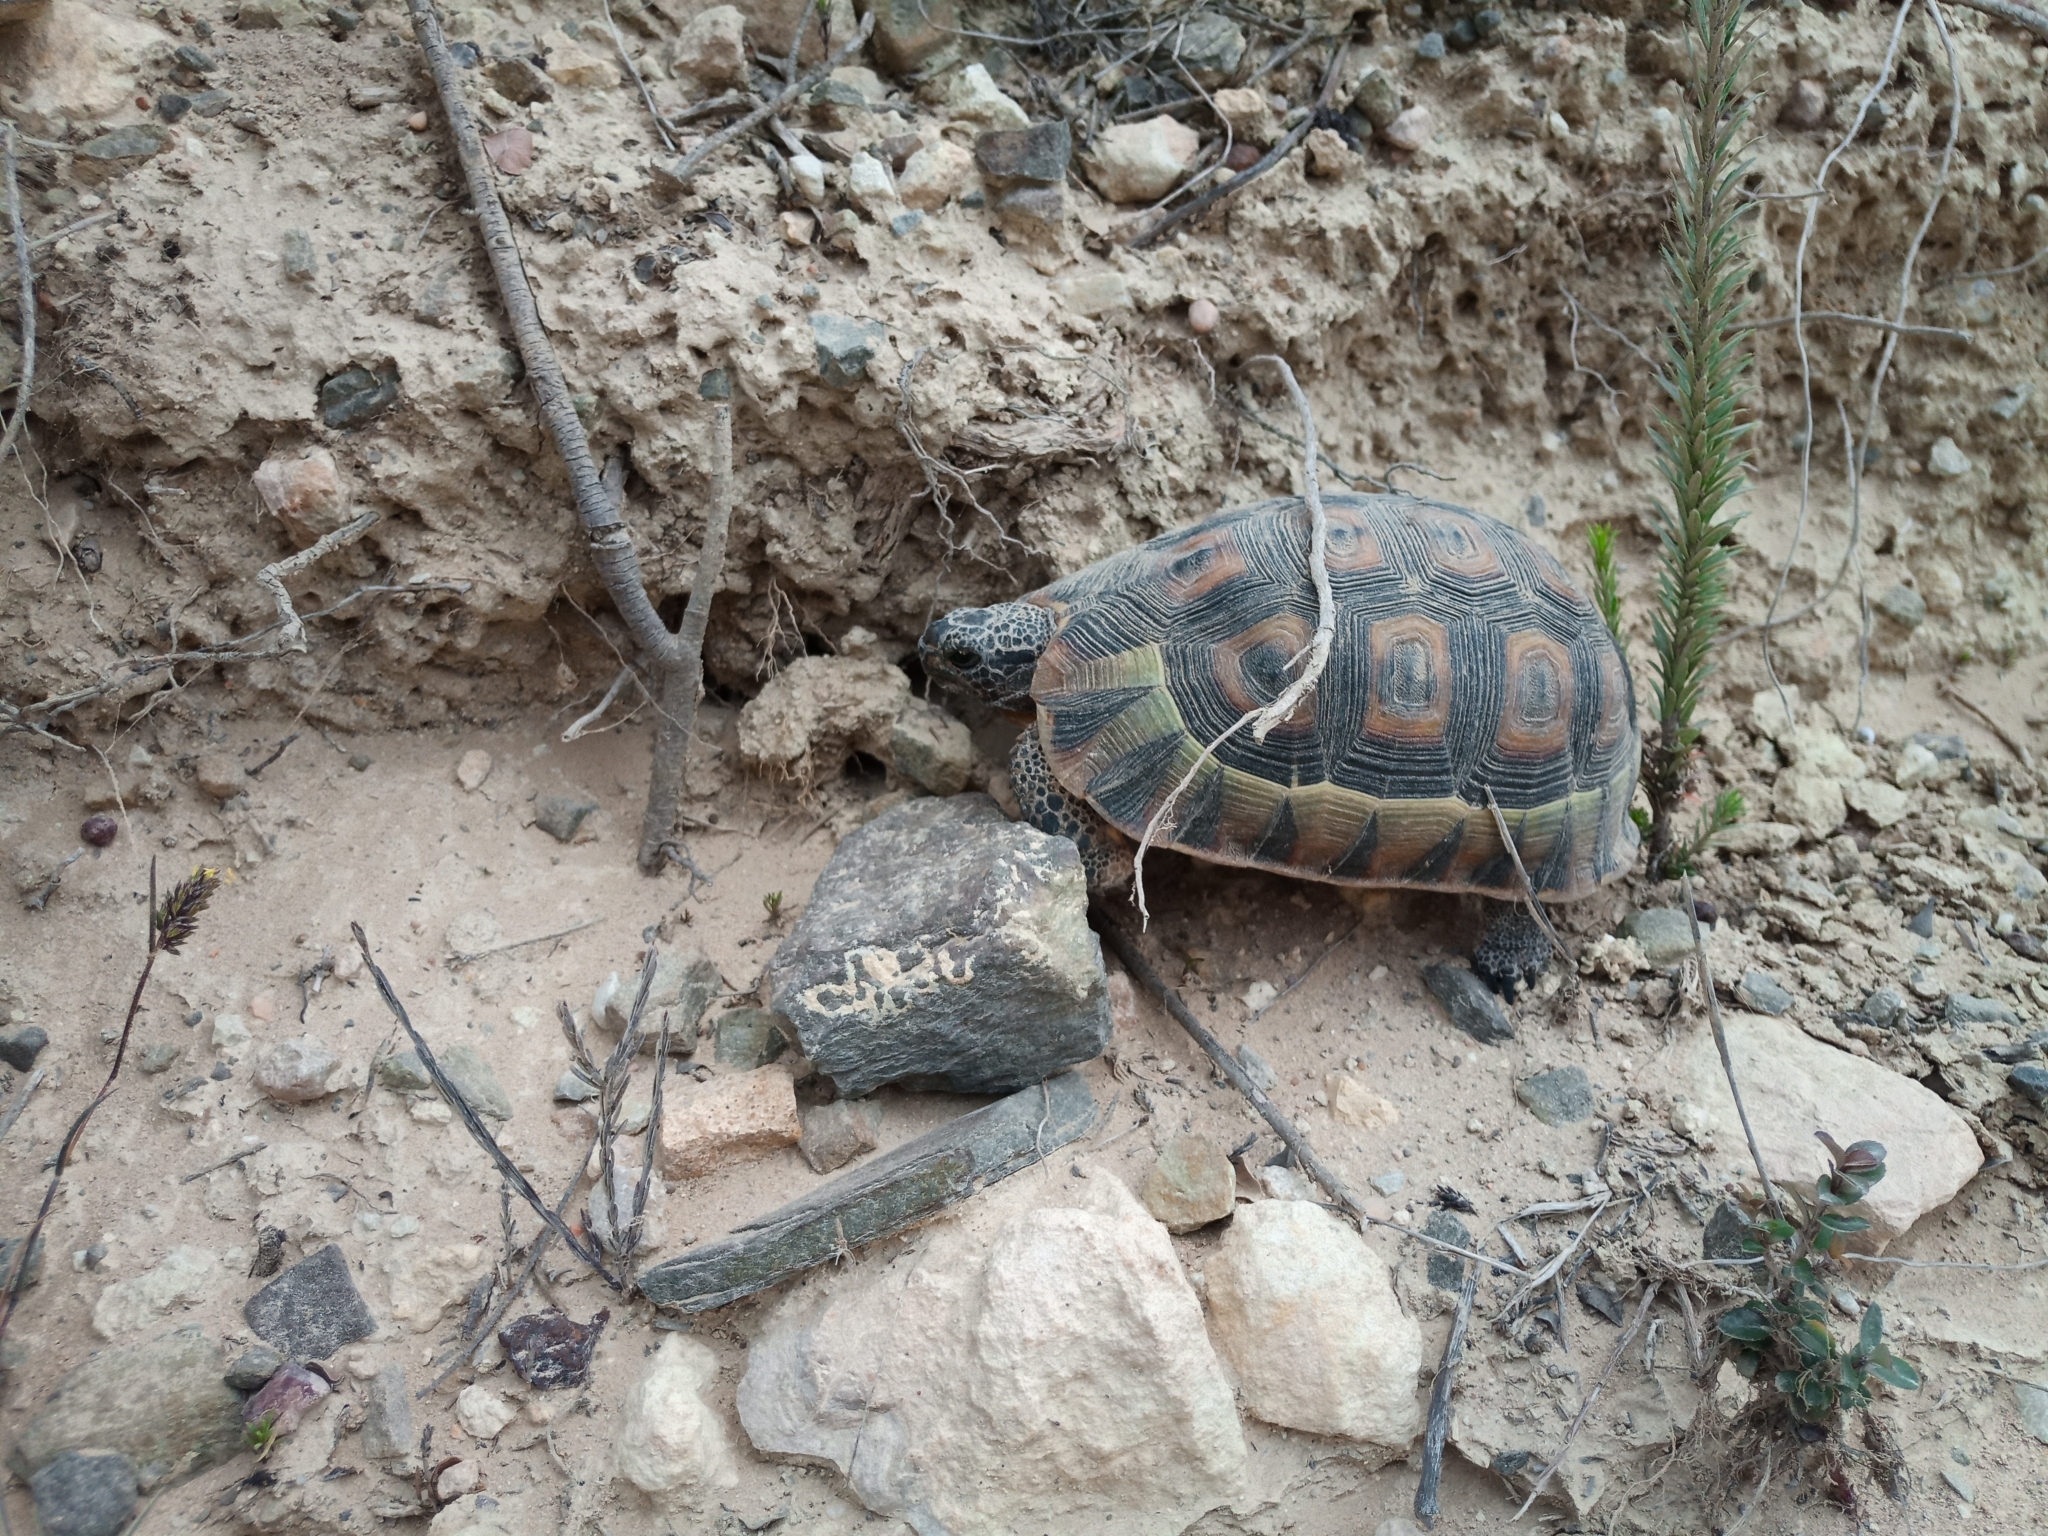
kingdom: Animalia
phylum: Chordata
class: Testudines
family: Testudinidae
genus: Chersina
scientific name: Chersina angulata
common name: South african bowsprit tortoise
